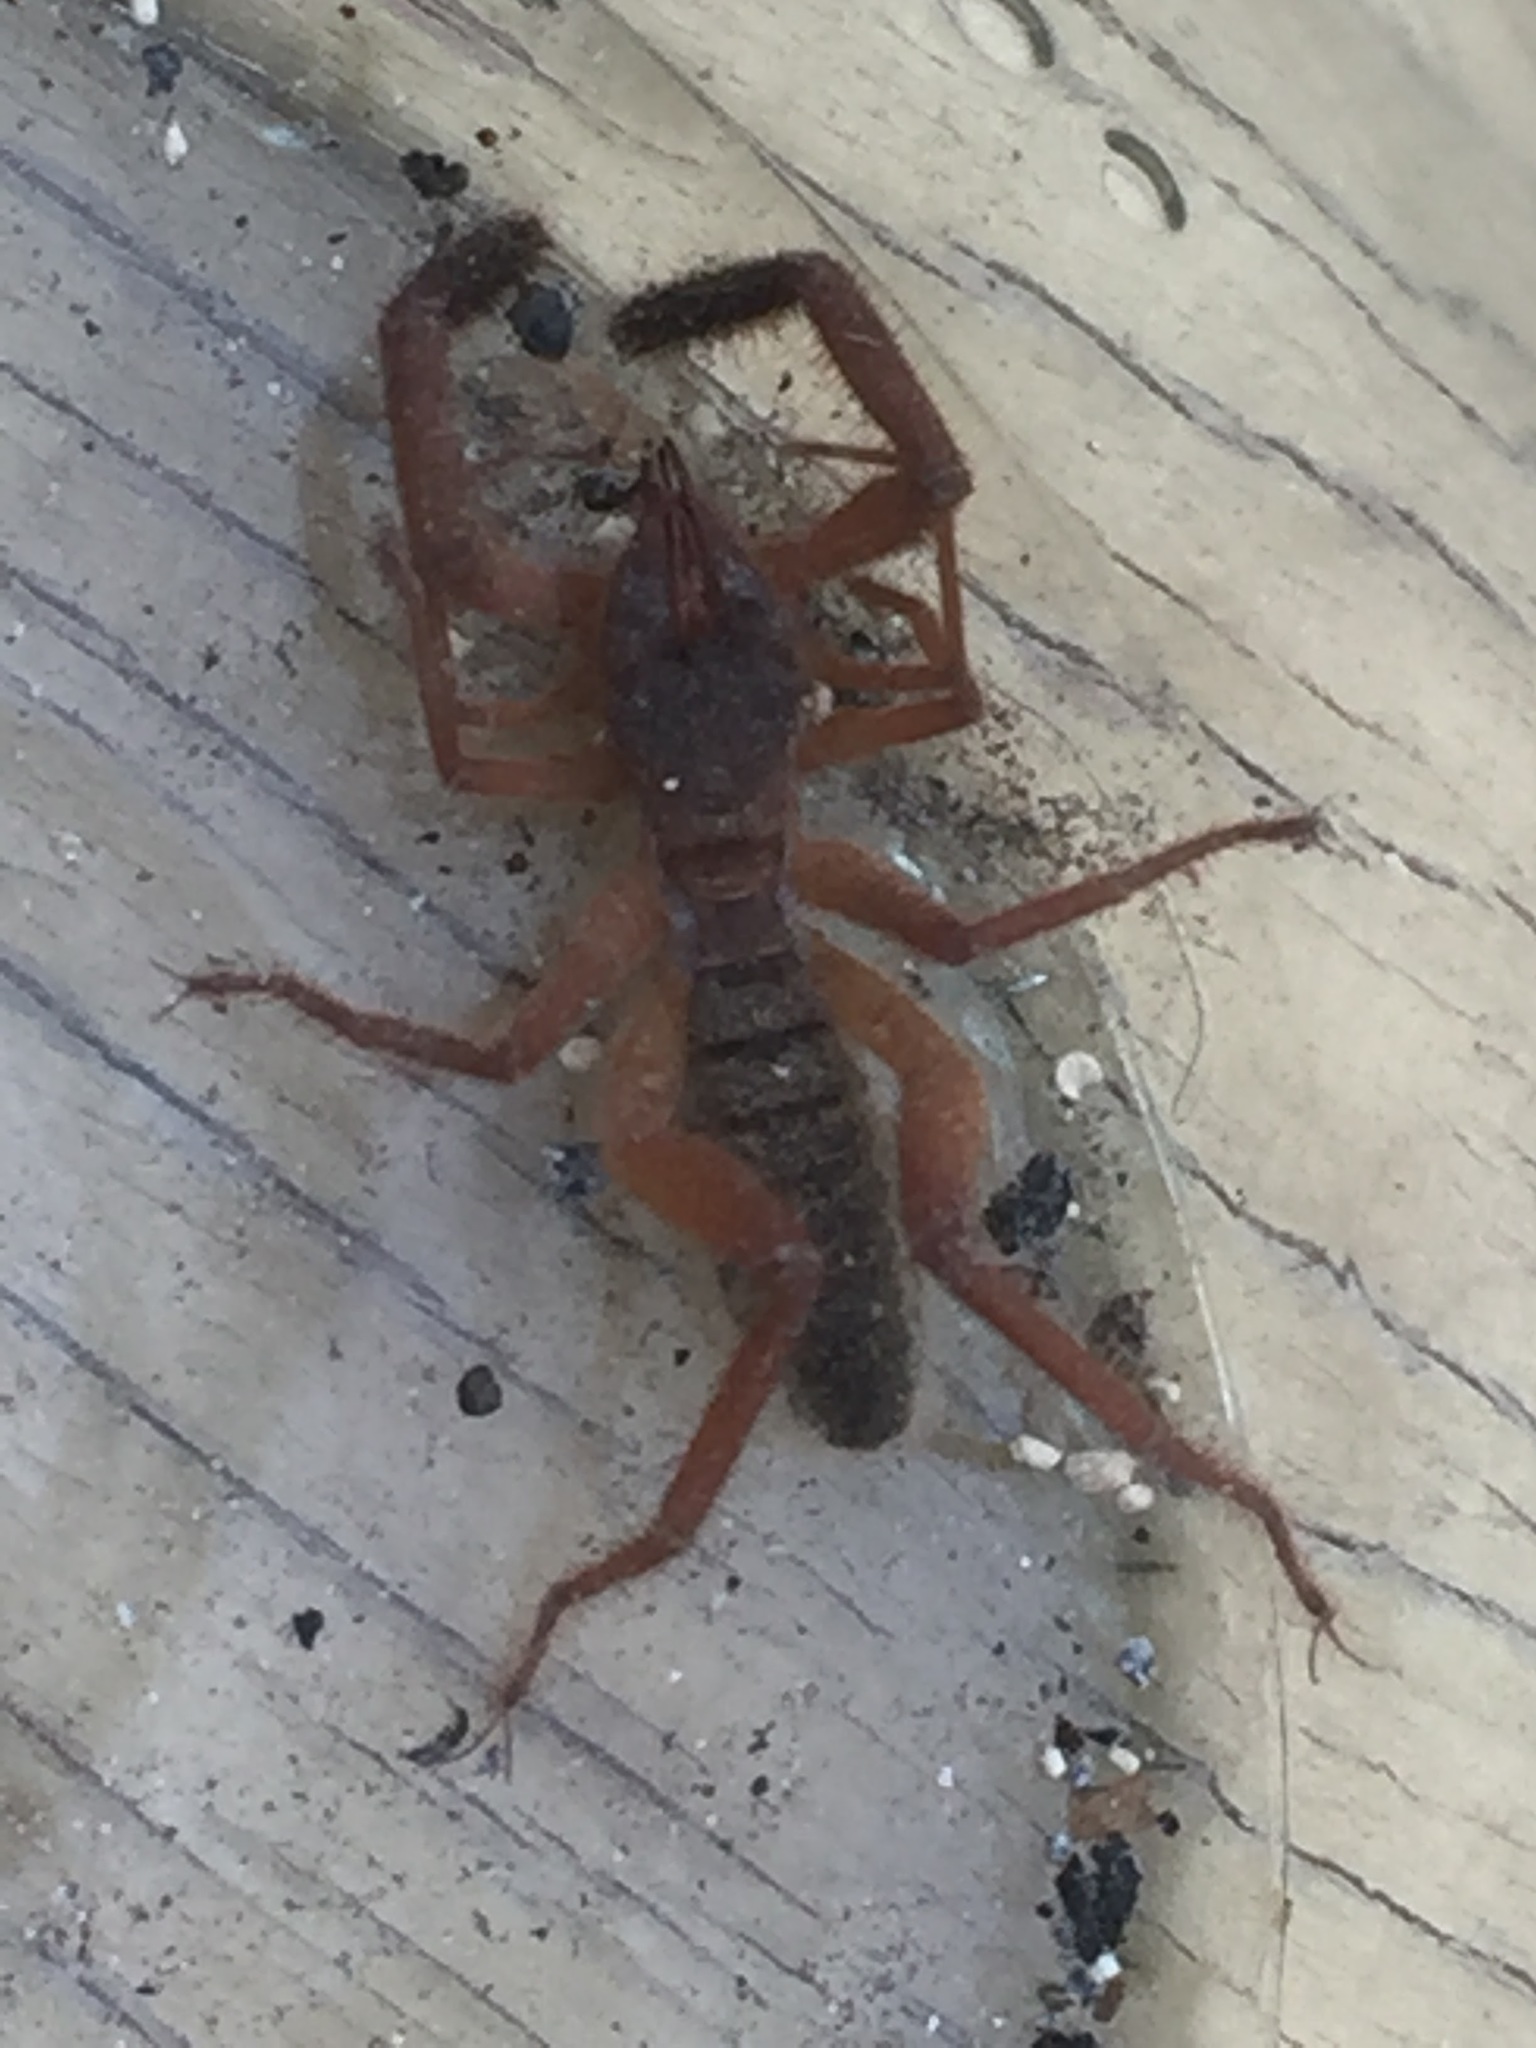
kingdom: Animalia
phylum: Arthropoda
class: Arachnida
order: Solifugae
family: Daesiidae
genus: Gluvia
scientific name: Gluvia dorsalis
